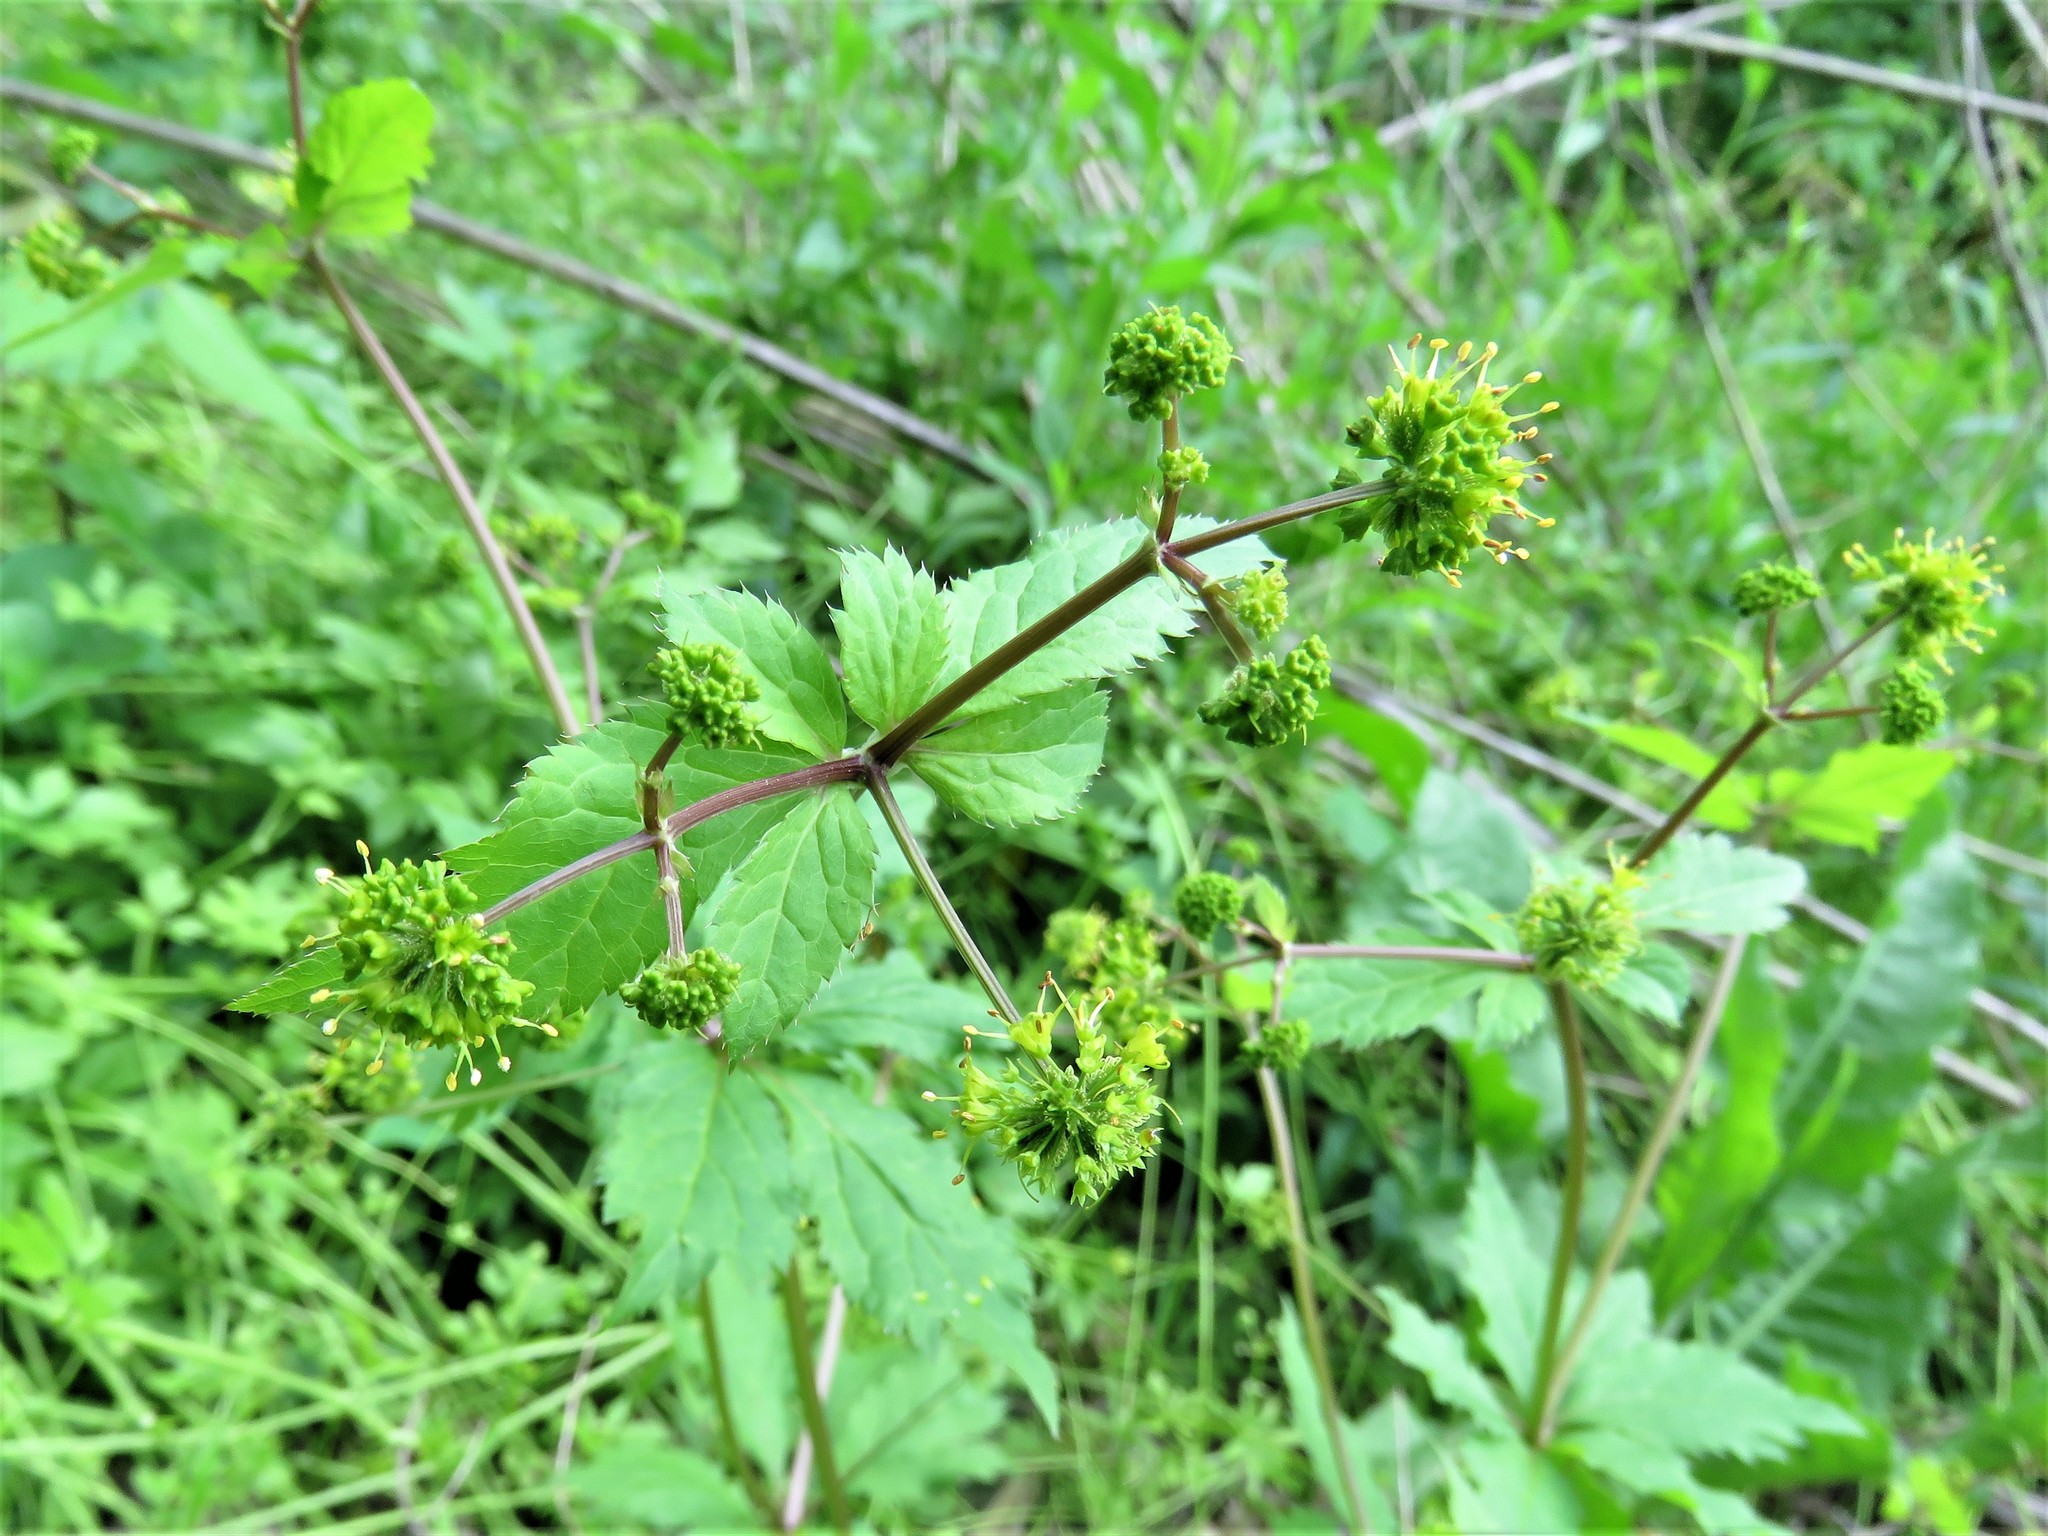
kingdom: Plantae
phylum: Tracheophyta
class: Magnoliopsida
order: Apiales
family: Apiaceae
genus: Sanicula
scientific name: Sanicula odorata
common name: Cluster sanicle
